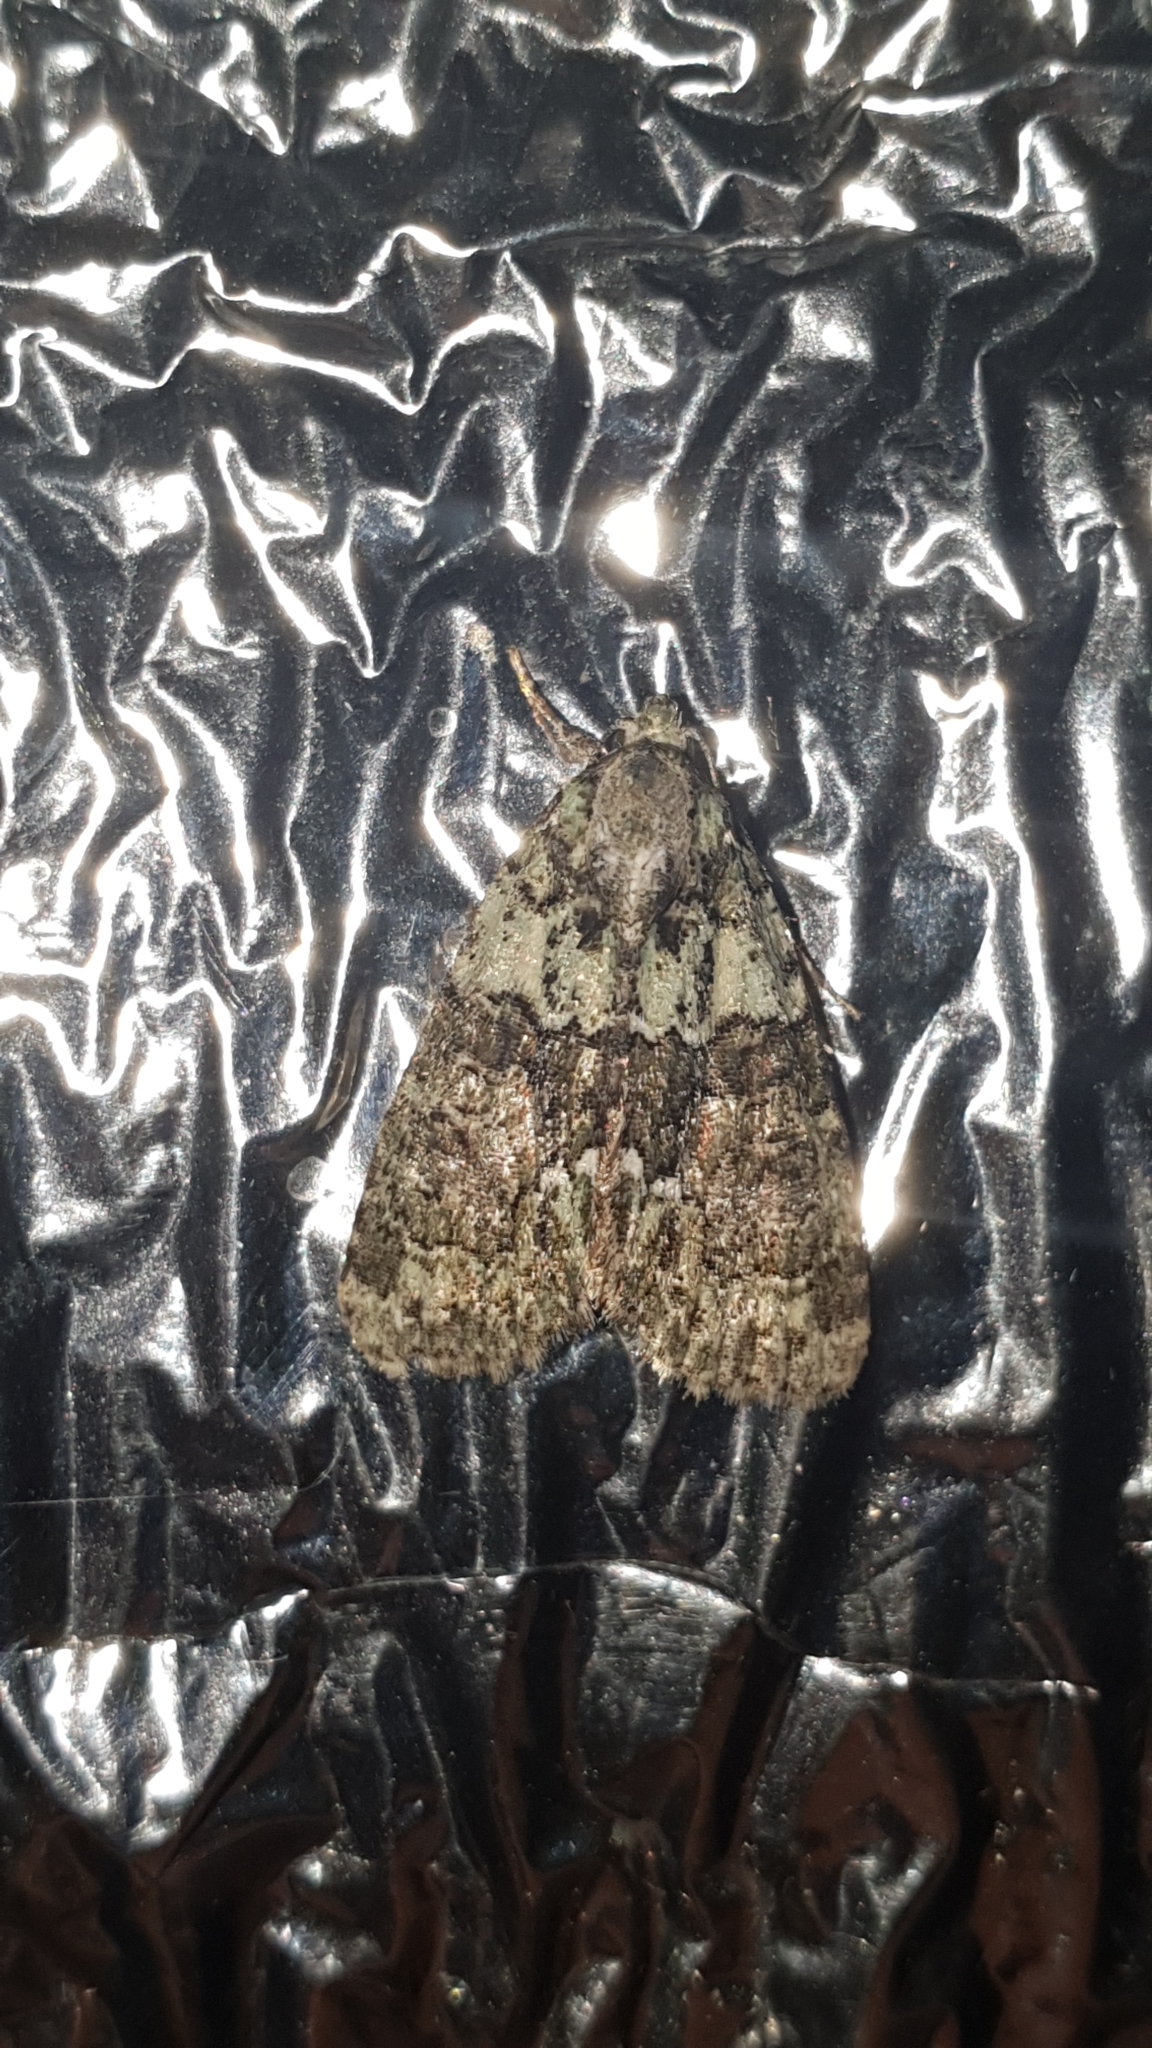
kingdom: Animalia
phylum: Arthropoda
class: Insecta
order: Lepidoptera
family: Noctuidae
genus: Cryphia
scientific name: Cryphia algae
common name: Tree-lichen beauty
